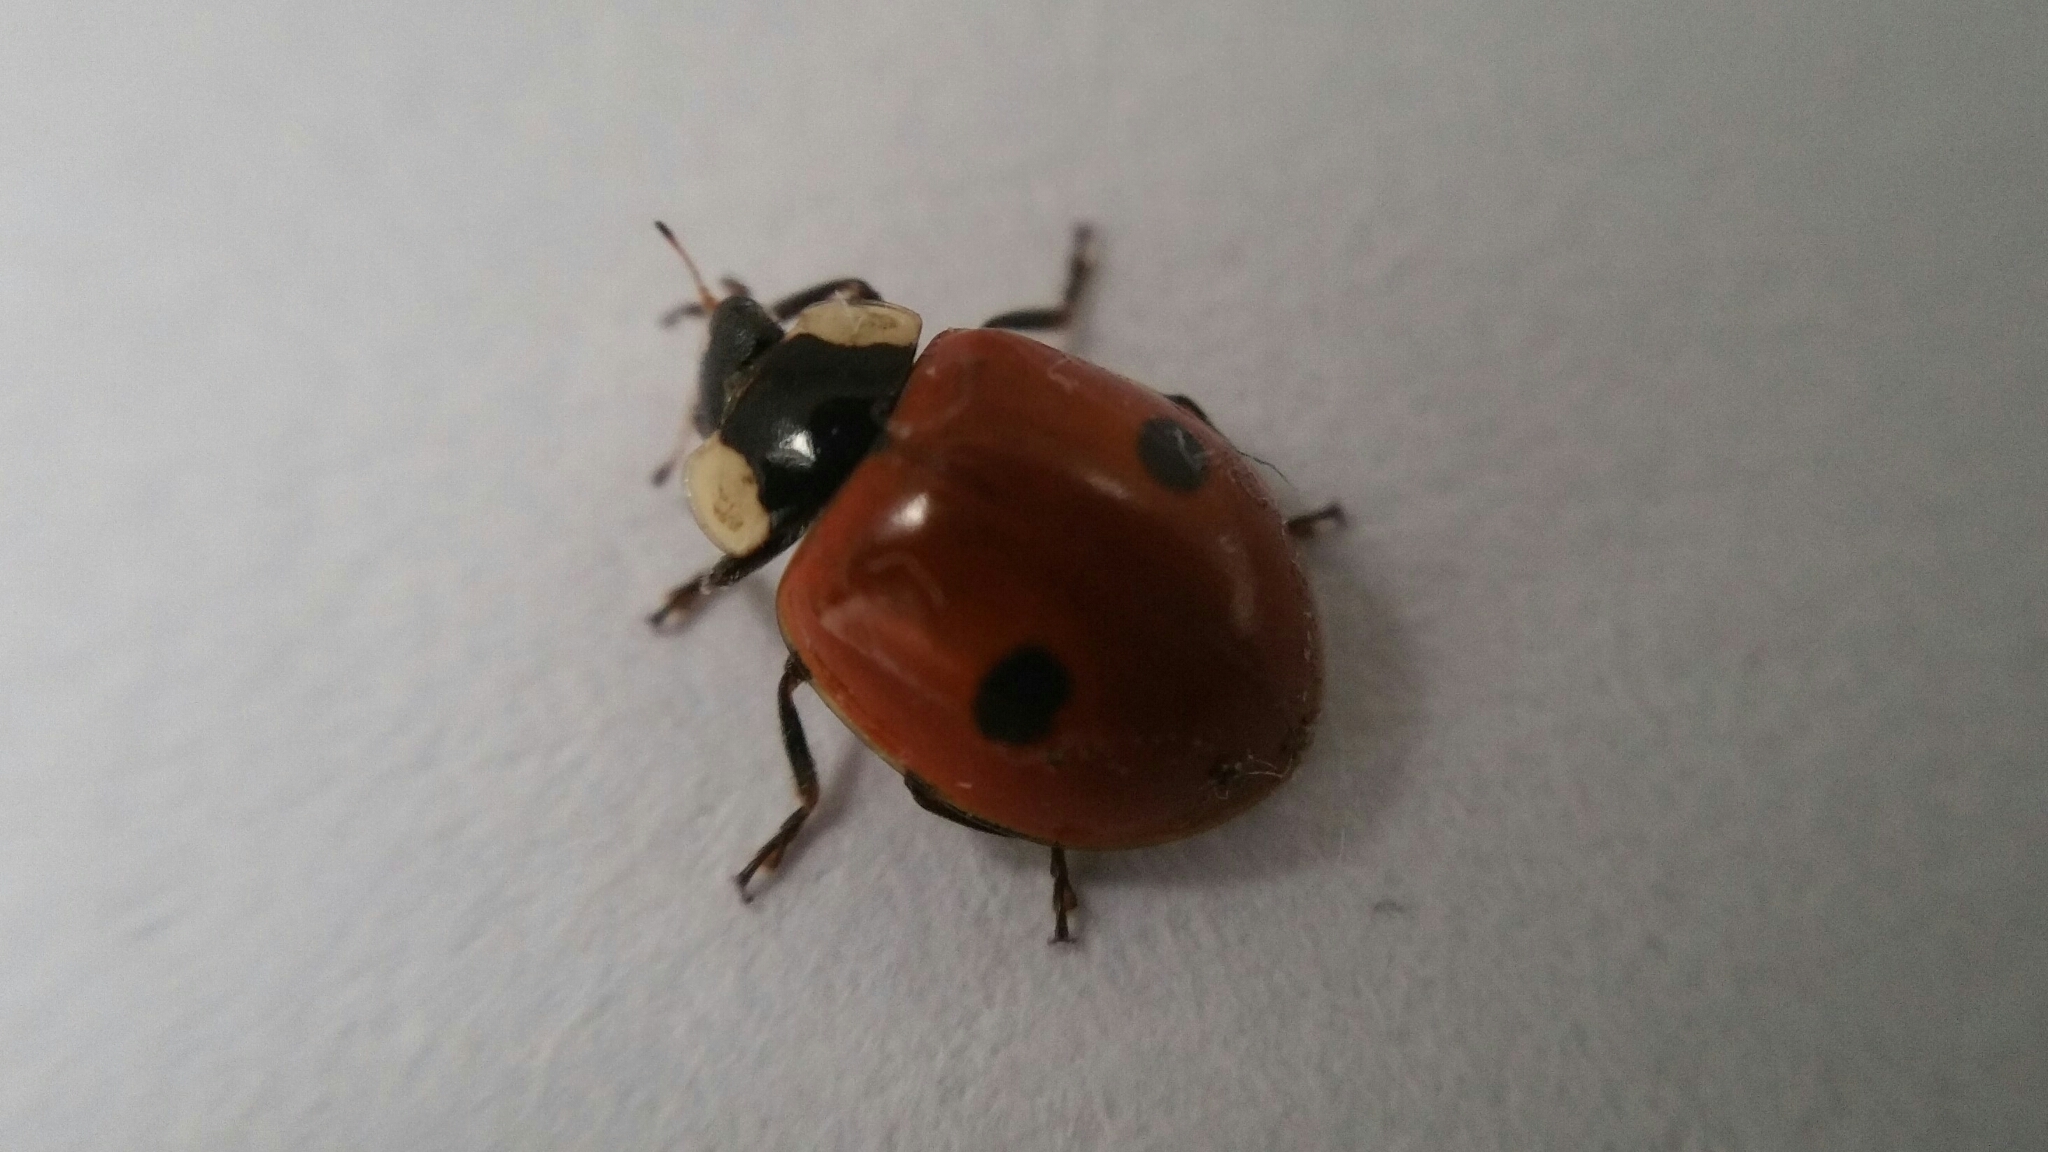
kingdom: Animalia
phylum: Arthropoda
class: Insecta
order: Coleoptera
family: Coccinellidae
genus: Adalia
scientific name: Adalia bipunctata
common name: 2-spot ladybird
